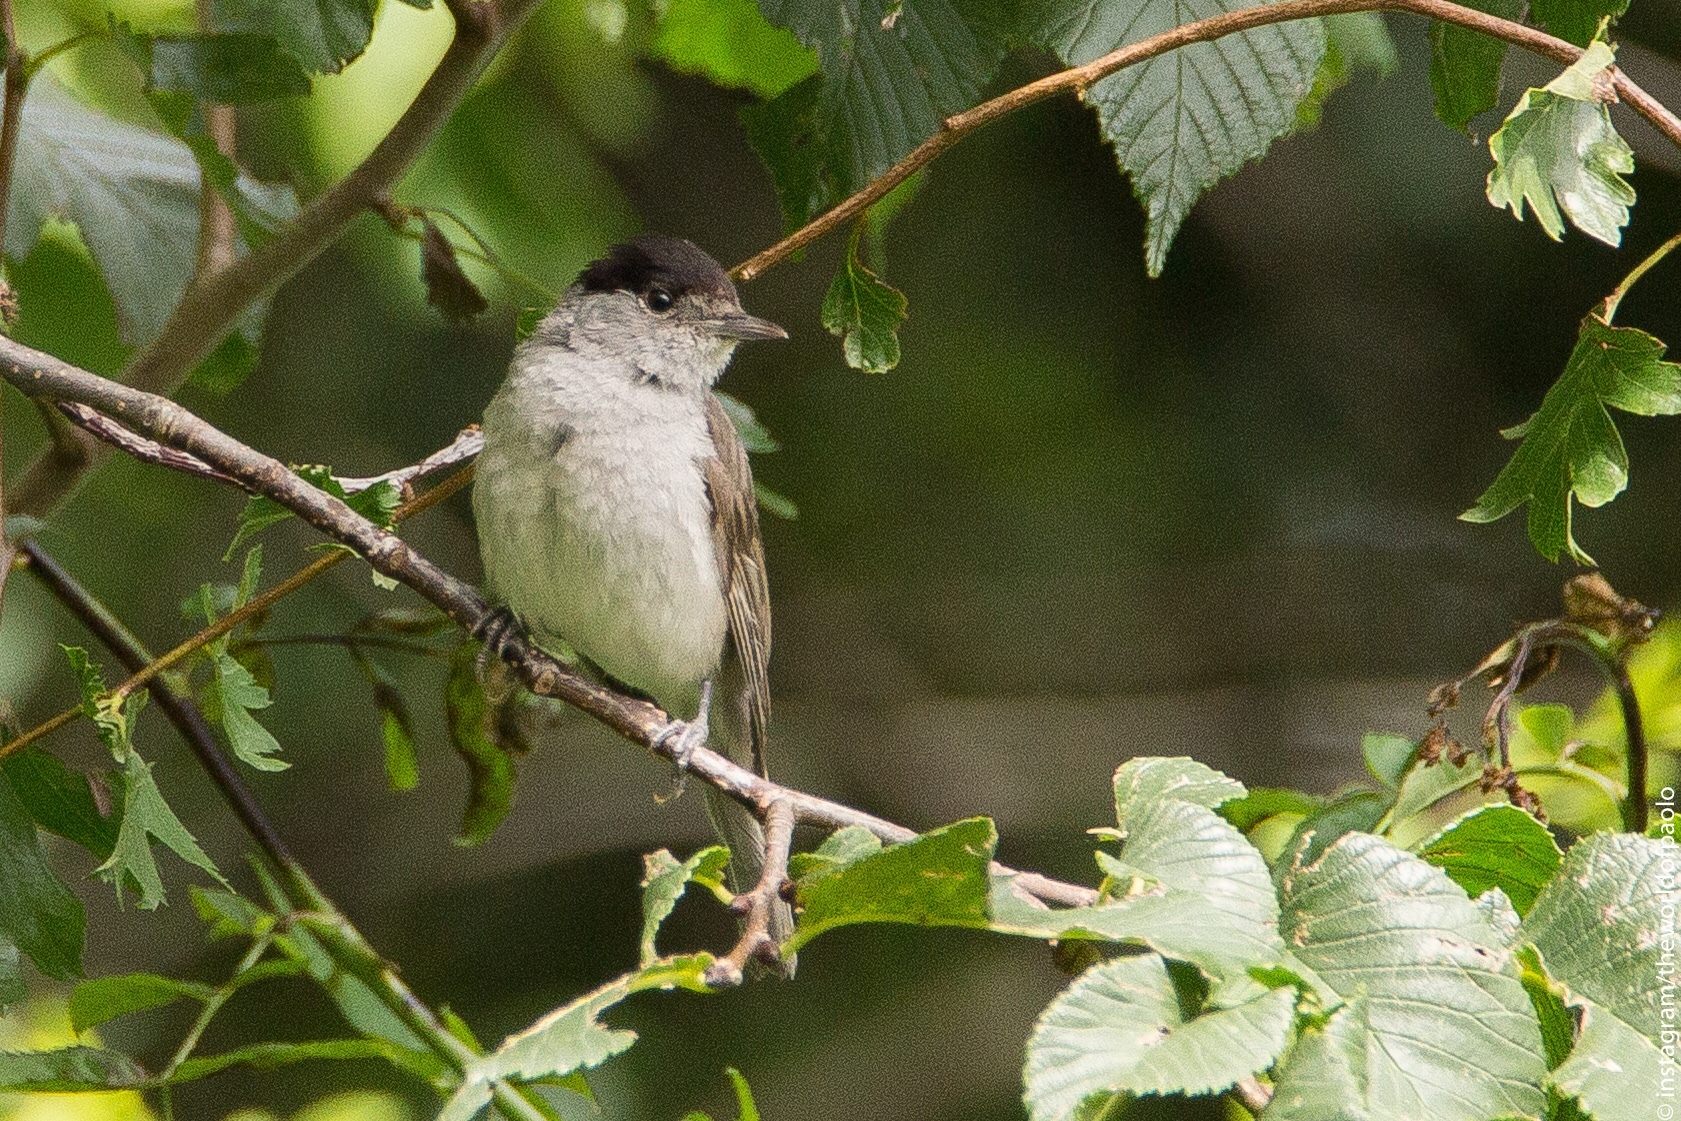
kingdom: Animalia
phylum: Chordata
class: Aves
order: Passeriformes
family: Sylviidae
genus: Sylvia
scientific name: Sylvia atricapilla
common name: Eurasian blackcap
